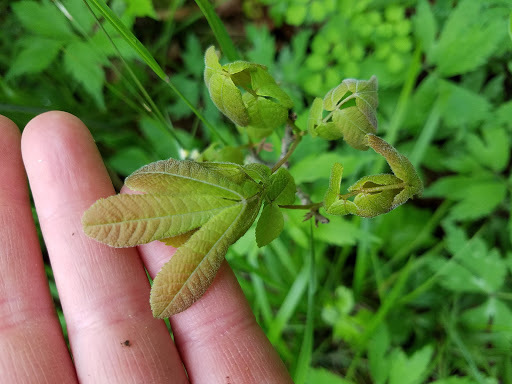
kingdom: Plantae
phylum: Tracheophyta
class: Magnoliopsida
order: Fagales
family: Juglandaceae
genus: Carya
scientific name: Carya cordiformis
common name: Bitternut hickory
